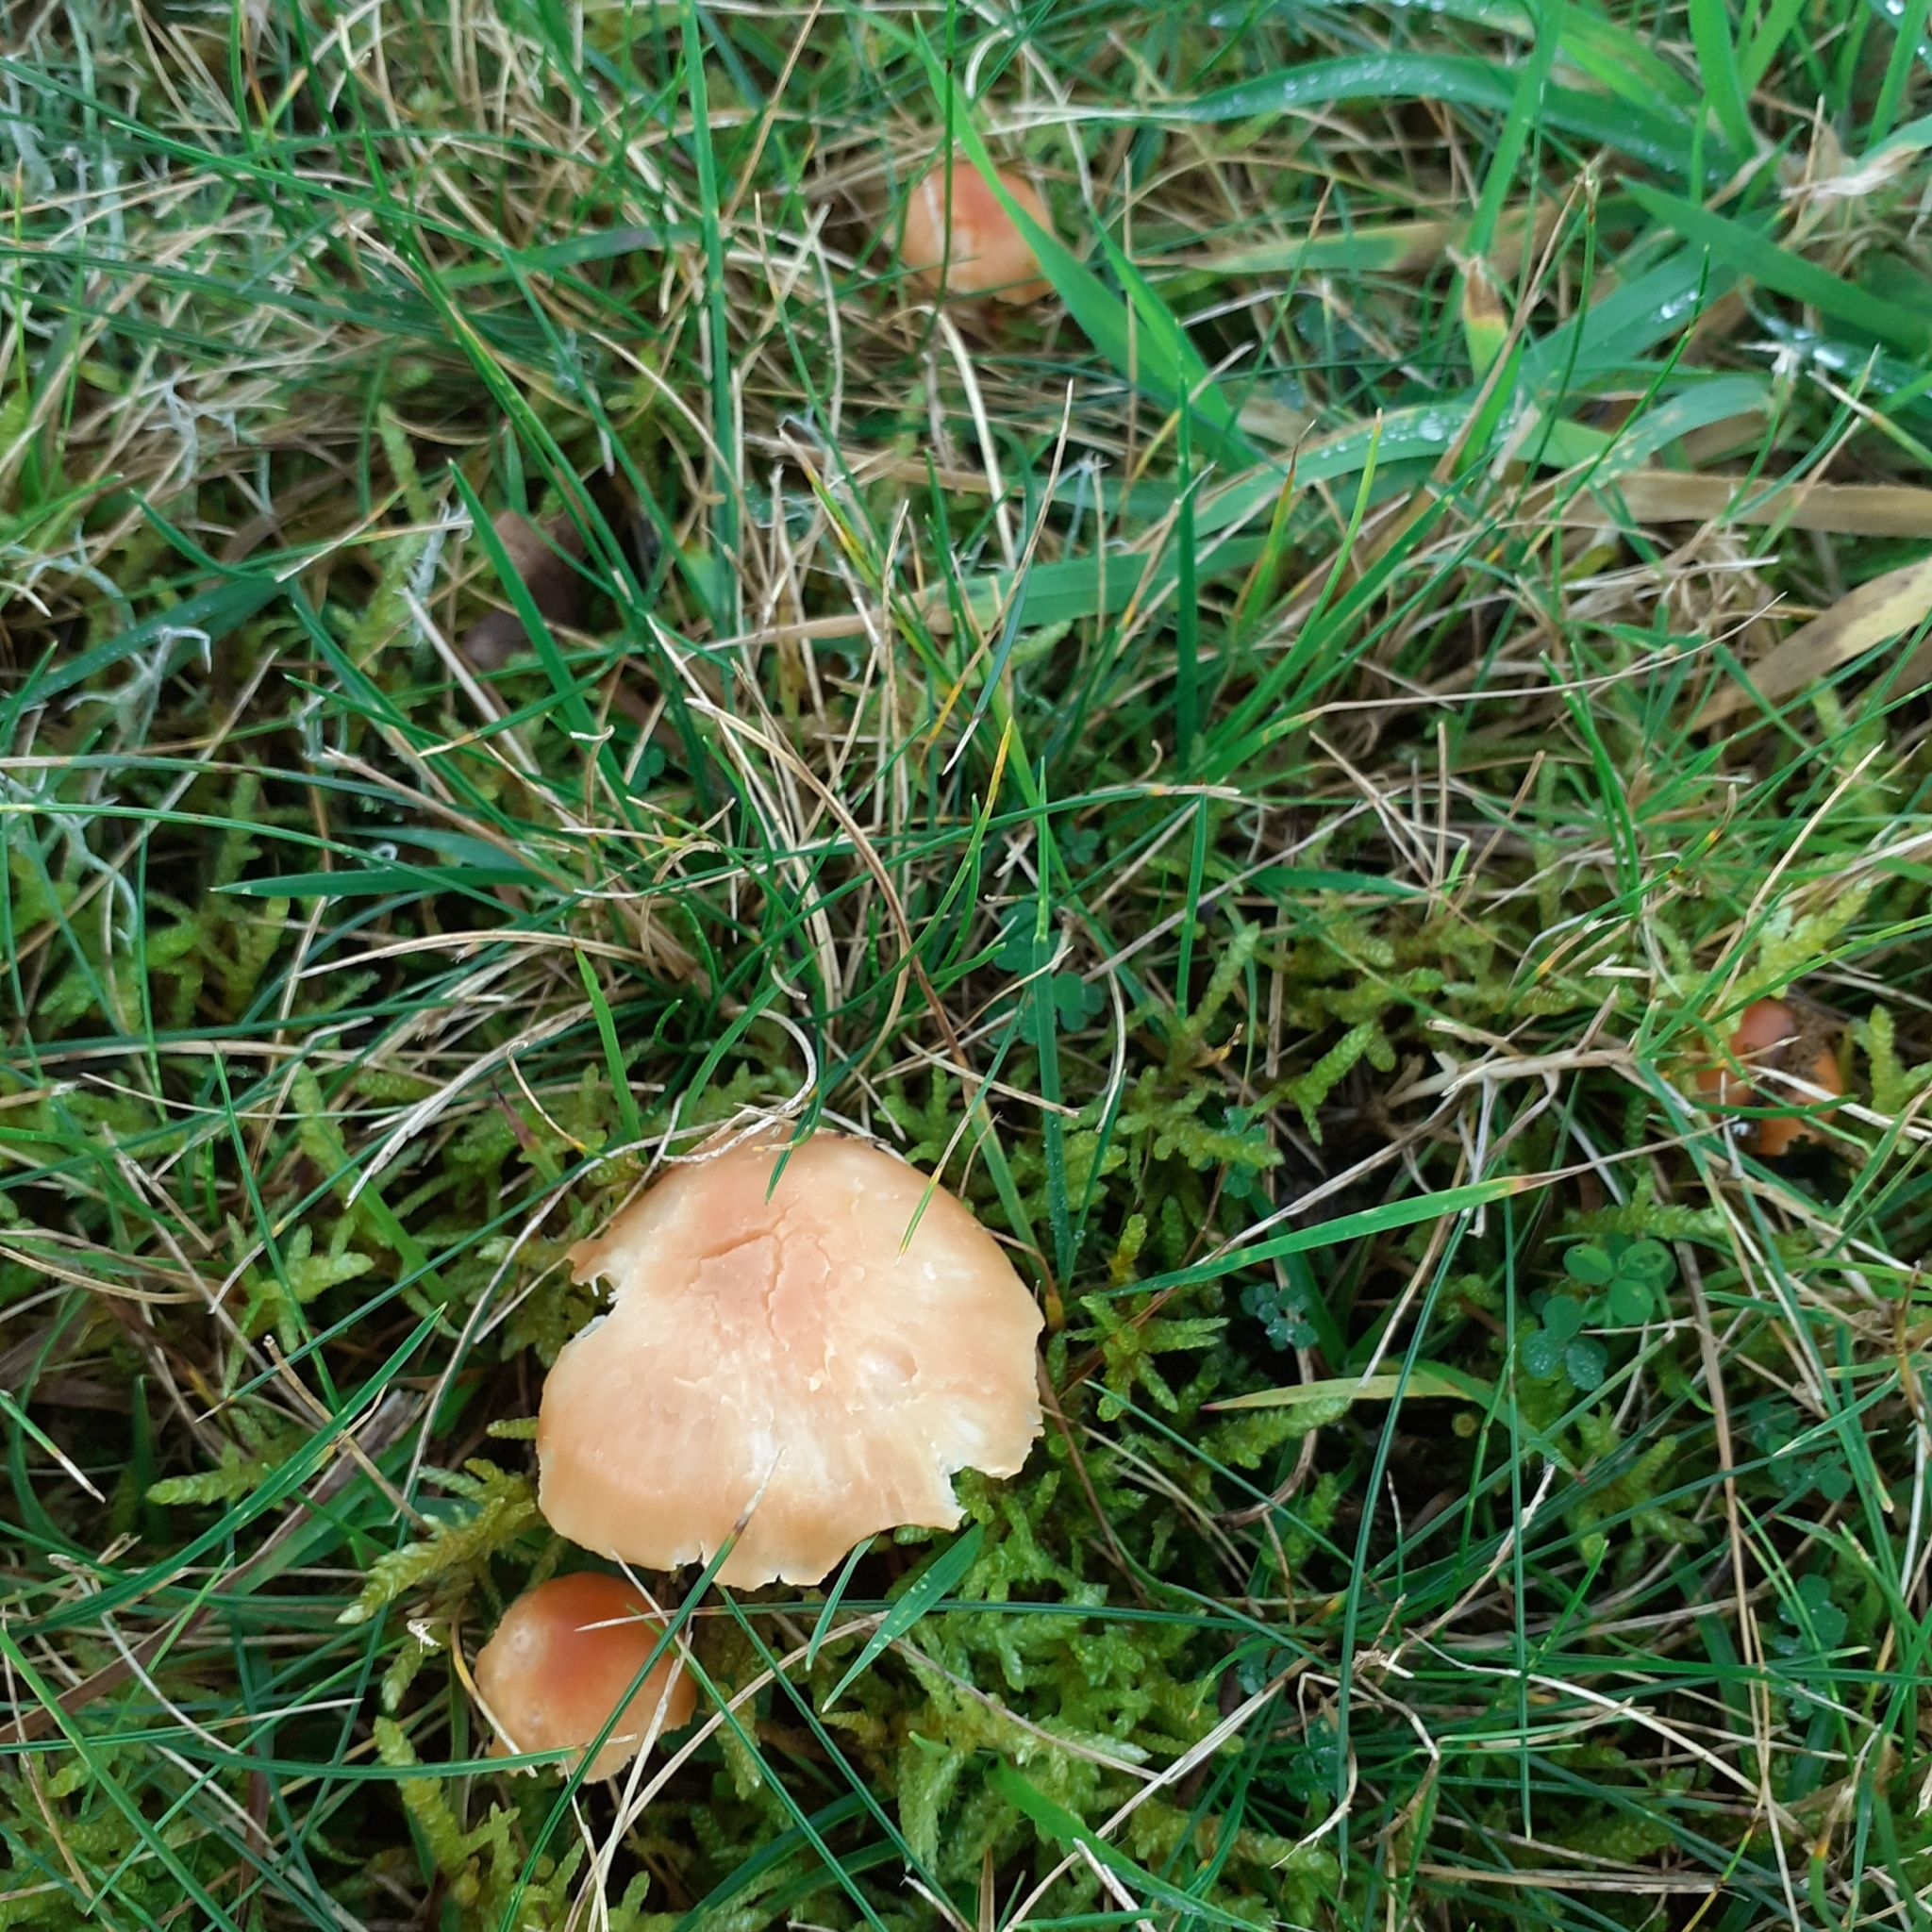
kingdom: Fungi
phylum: Basidiomycota
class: Agaricomycetes
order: Agaricales
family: Hygrophoraceae
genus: Cuphophyllus
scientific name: Cuphophyllus pratensis
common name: Meadow waxcap
